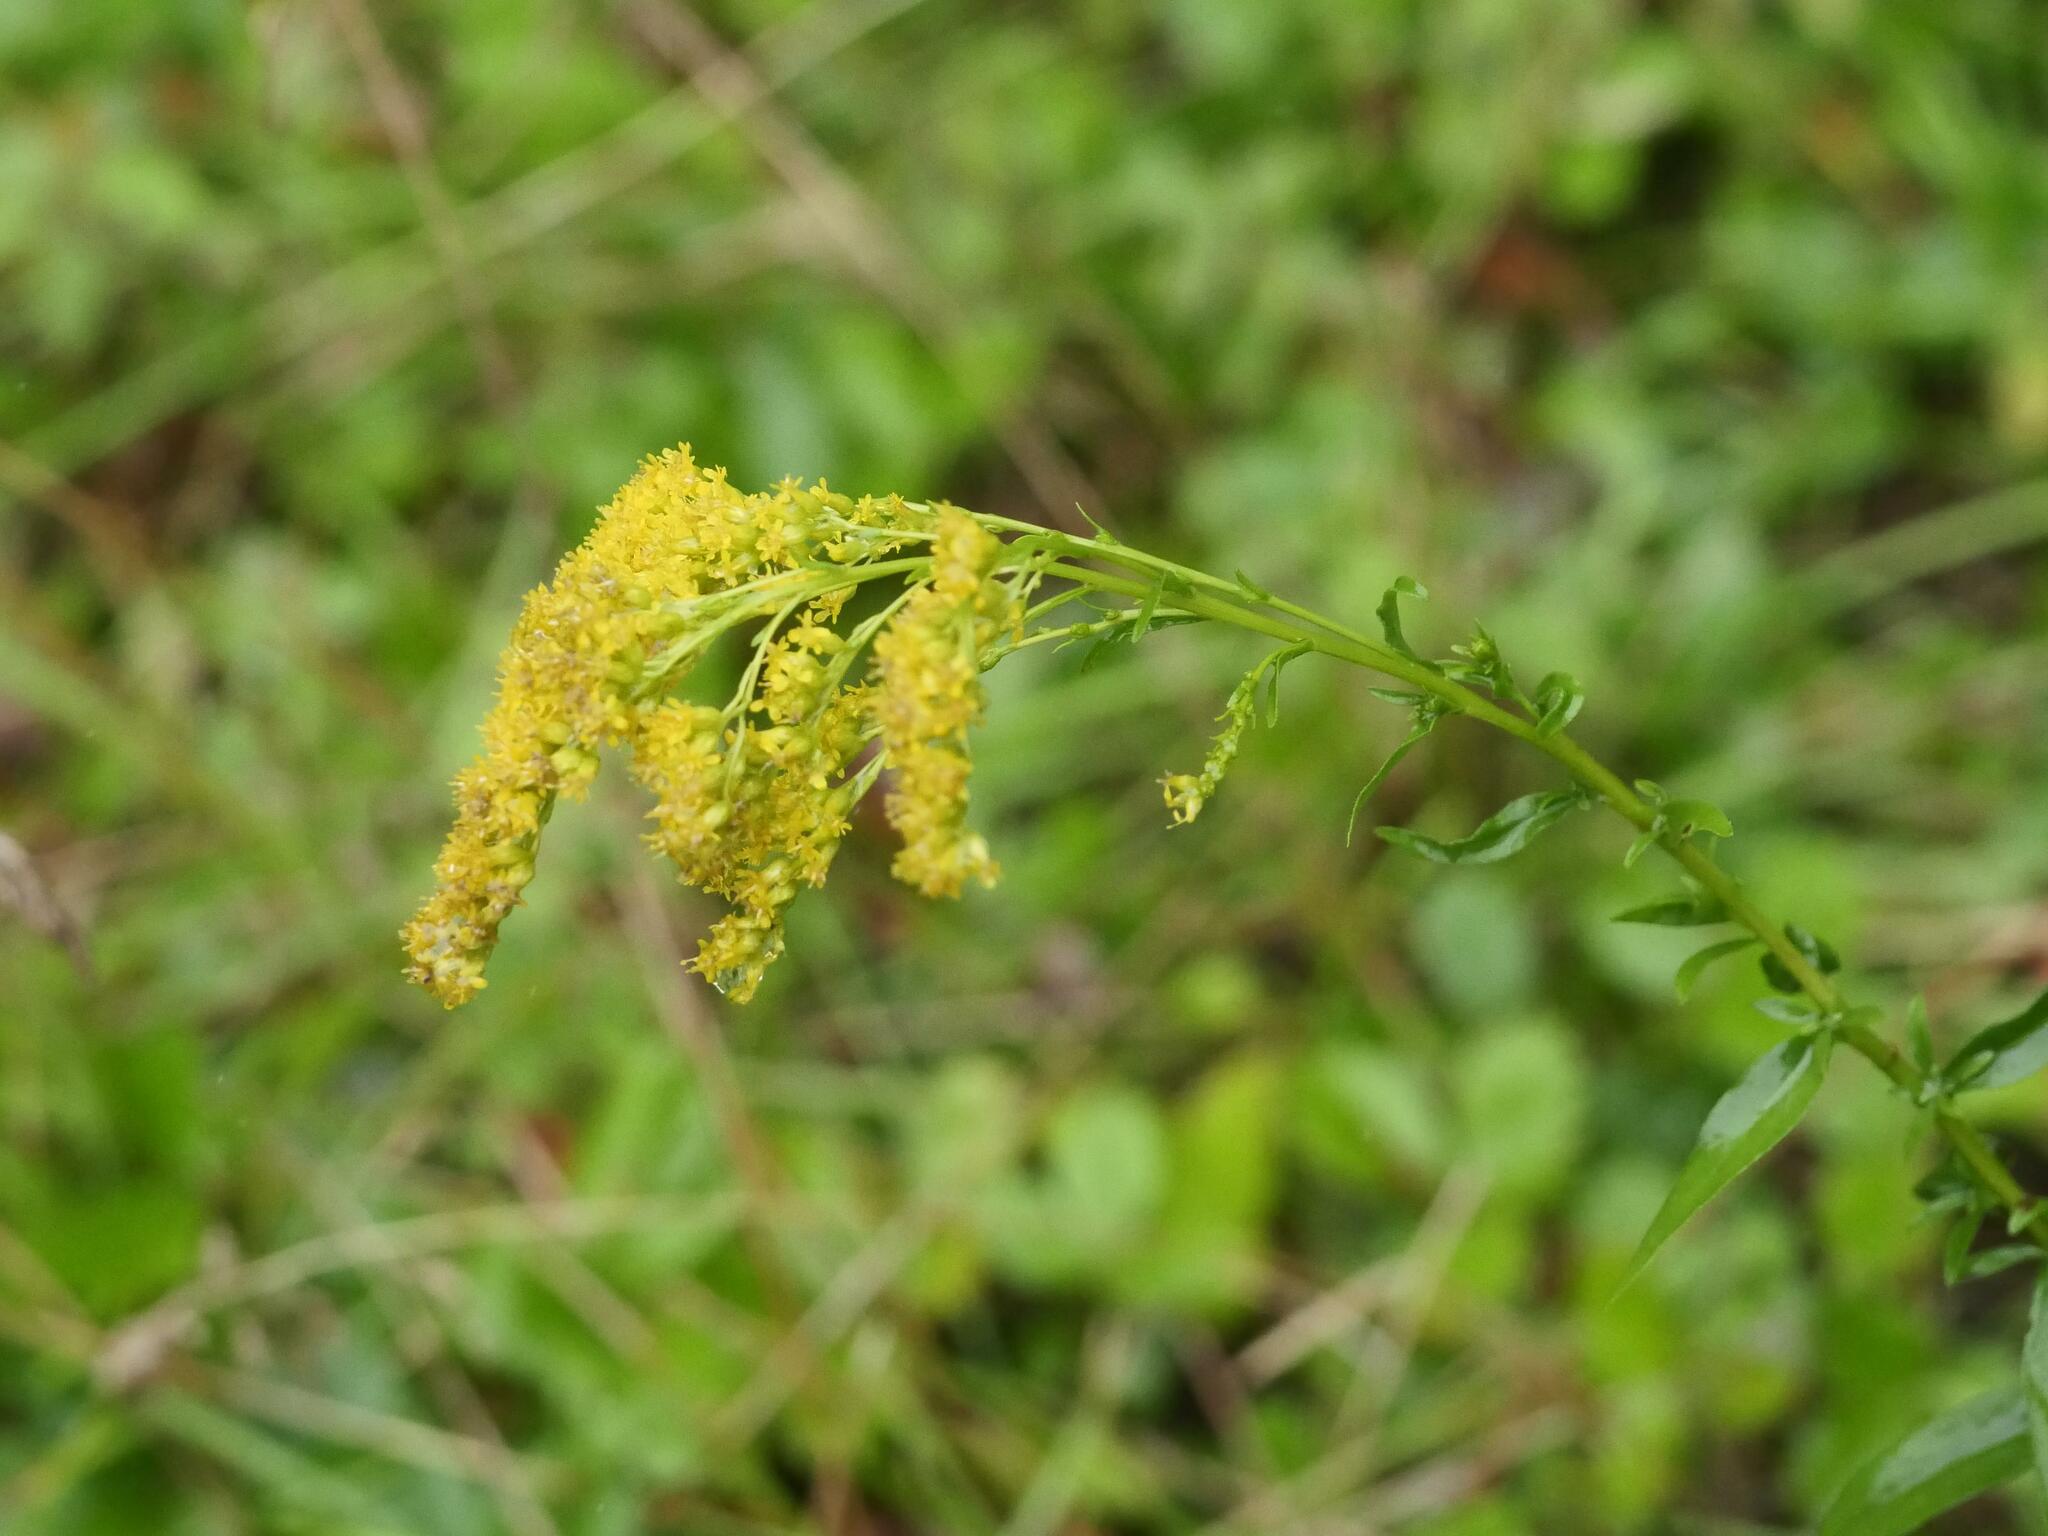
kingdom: Plantae
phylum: Tracheophyta
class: Magnoliopsida
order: Asterales
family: Asteraceae
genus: Solidago
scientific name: Solidago juncea
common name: Early goldenrod
